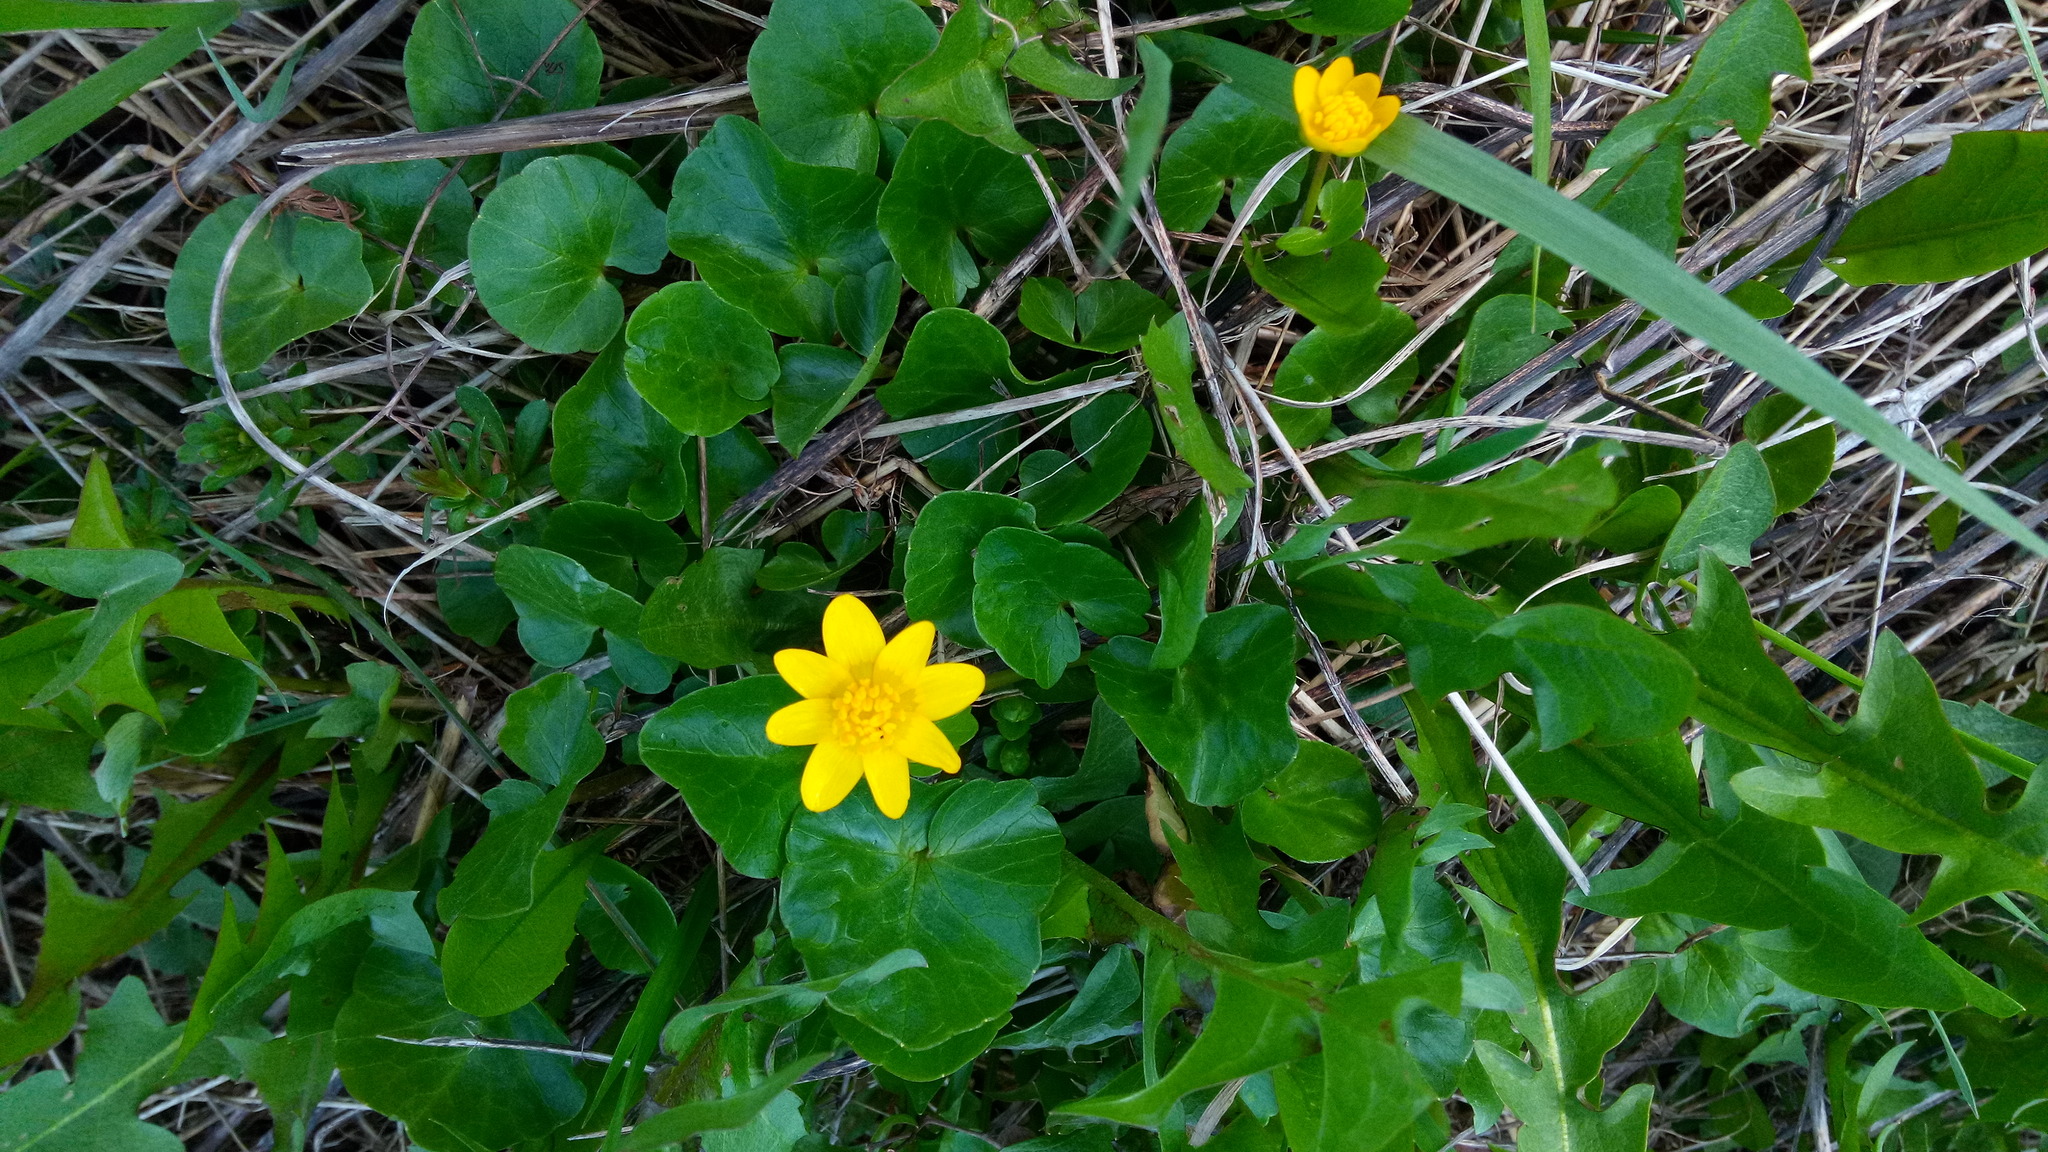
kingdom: Plantae
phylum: Tracheophyta
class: Magnoliopsida
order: Ranunculales
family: Ranunculaceae
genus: Ficaria
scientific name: Ficaria verna
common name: Lesser celandine
